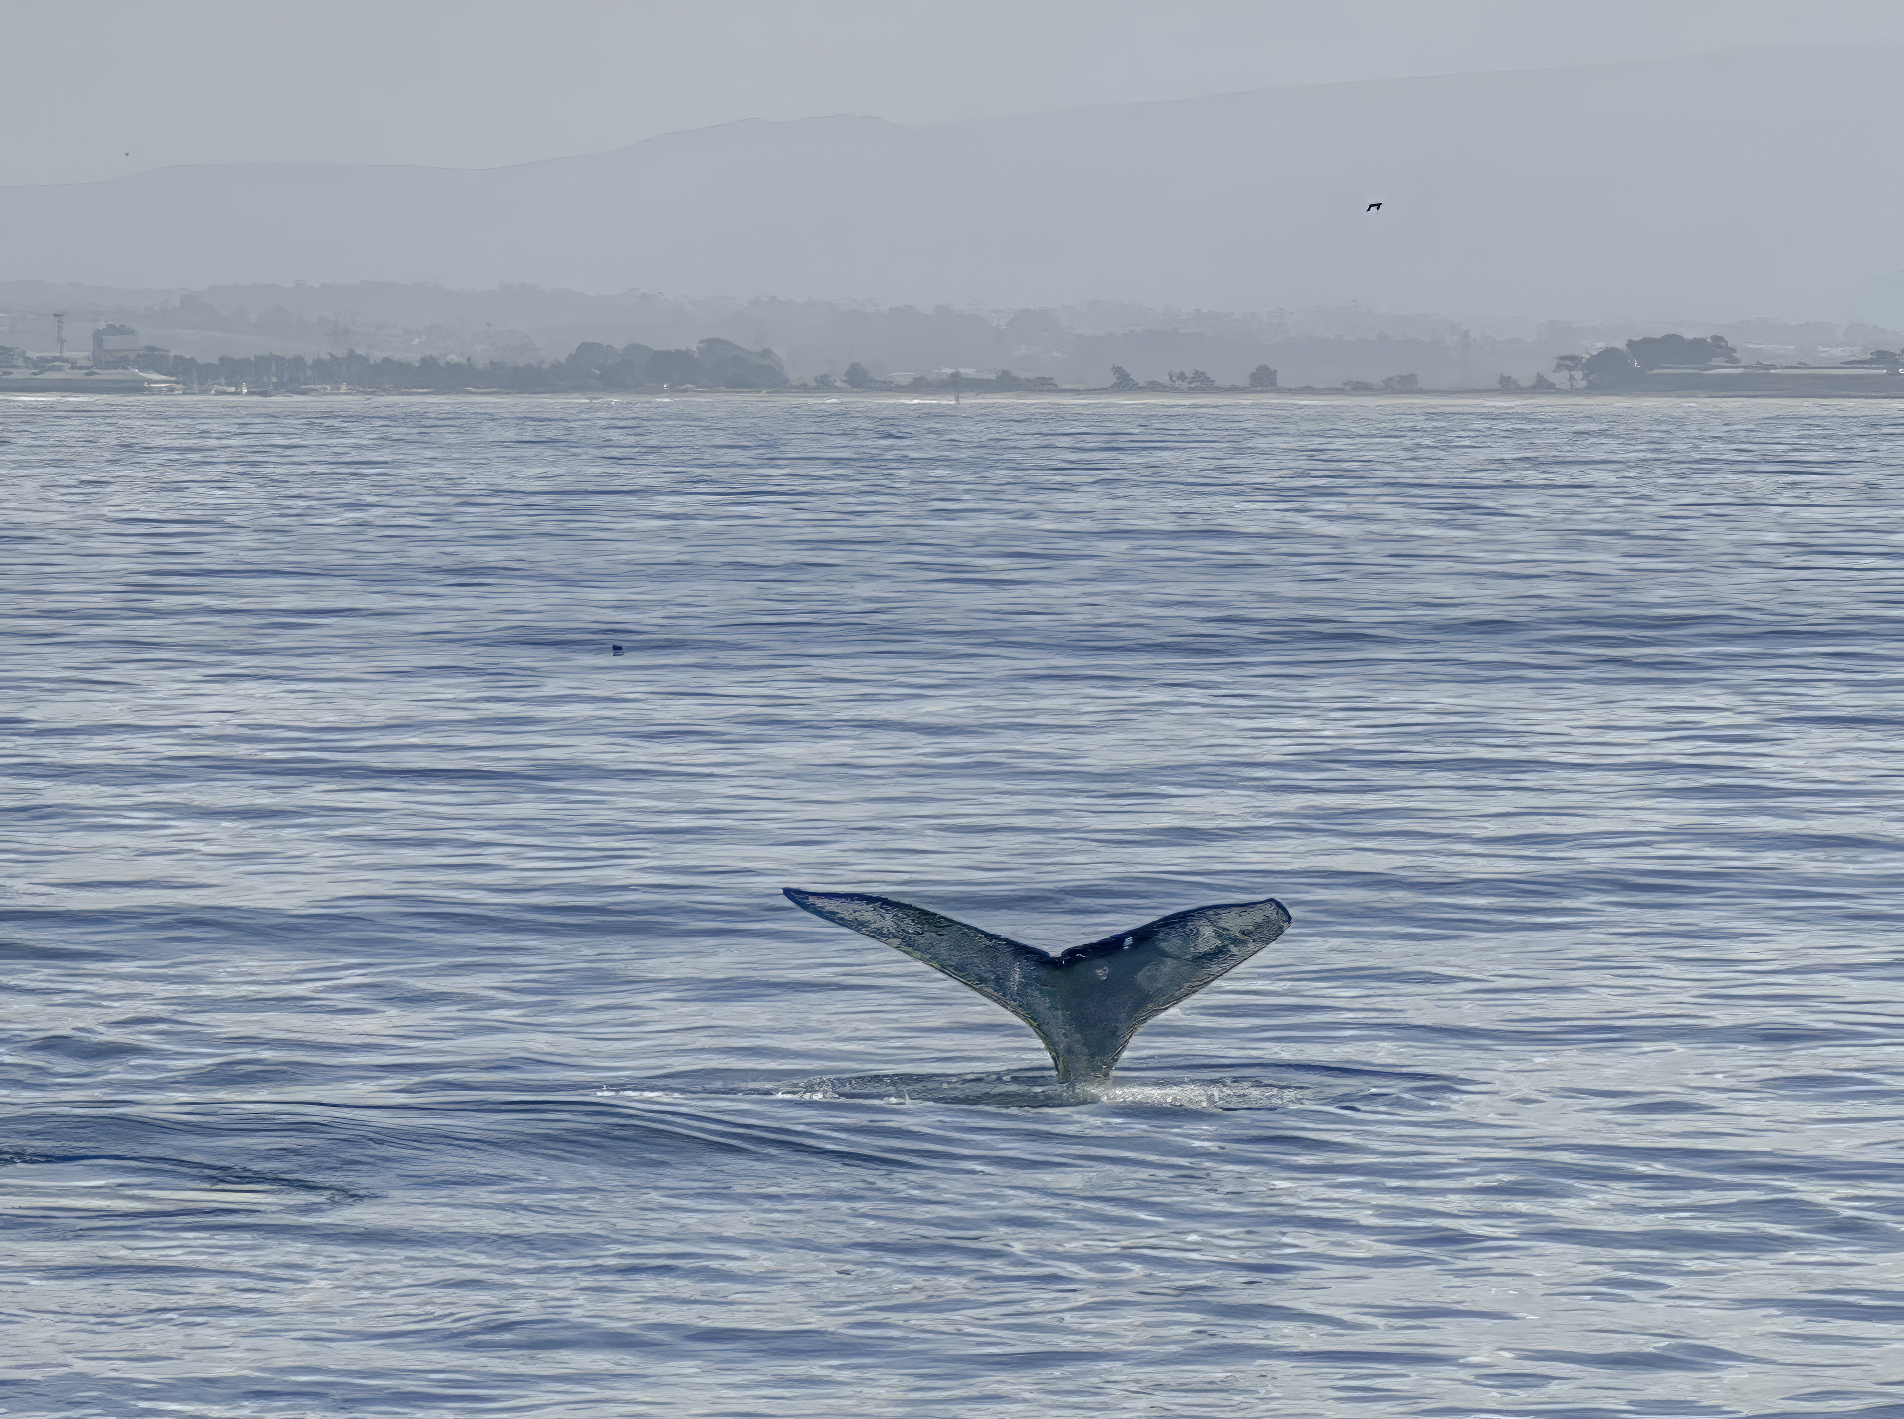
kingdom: Animalia
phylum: Chordata
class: Mammalia
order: Cetacea
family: Balaenopteridae
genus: Megaptera
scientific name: Megaptera novaeangliae
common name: Humpback whale
